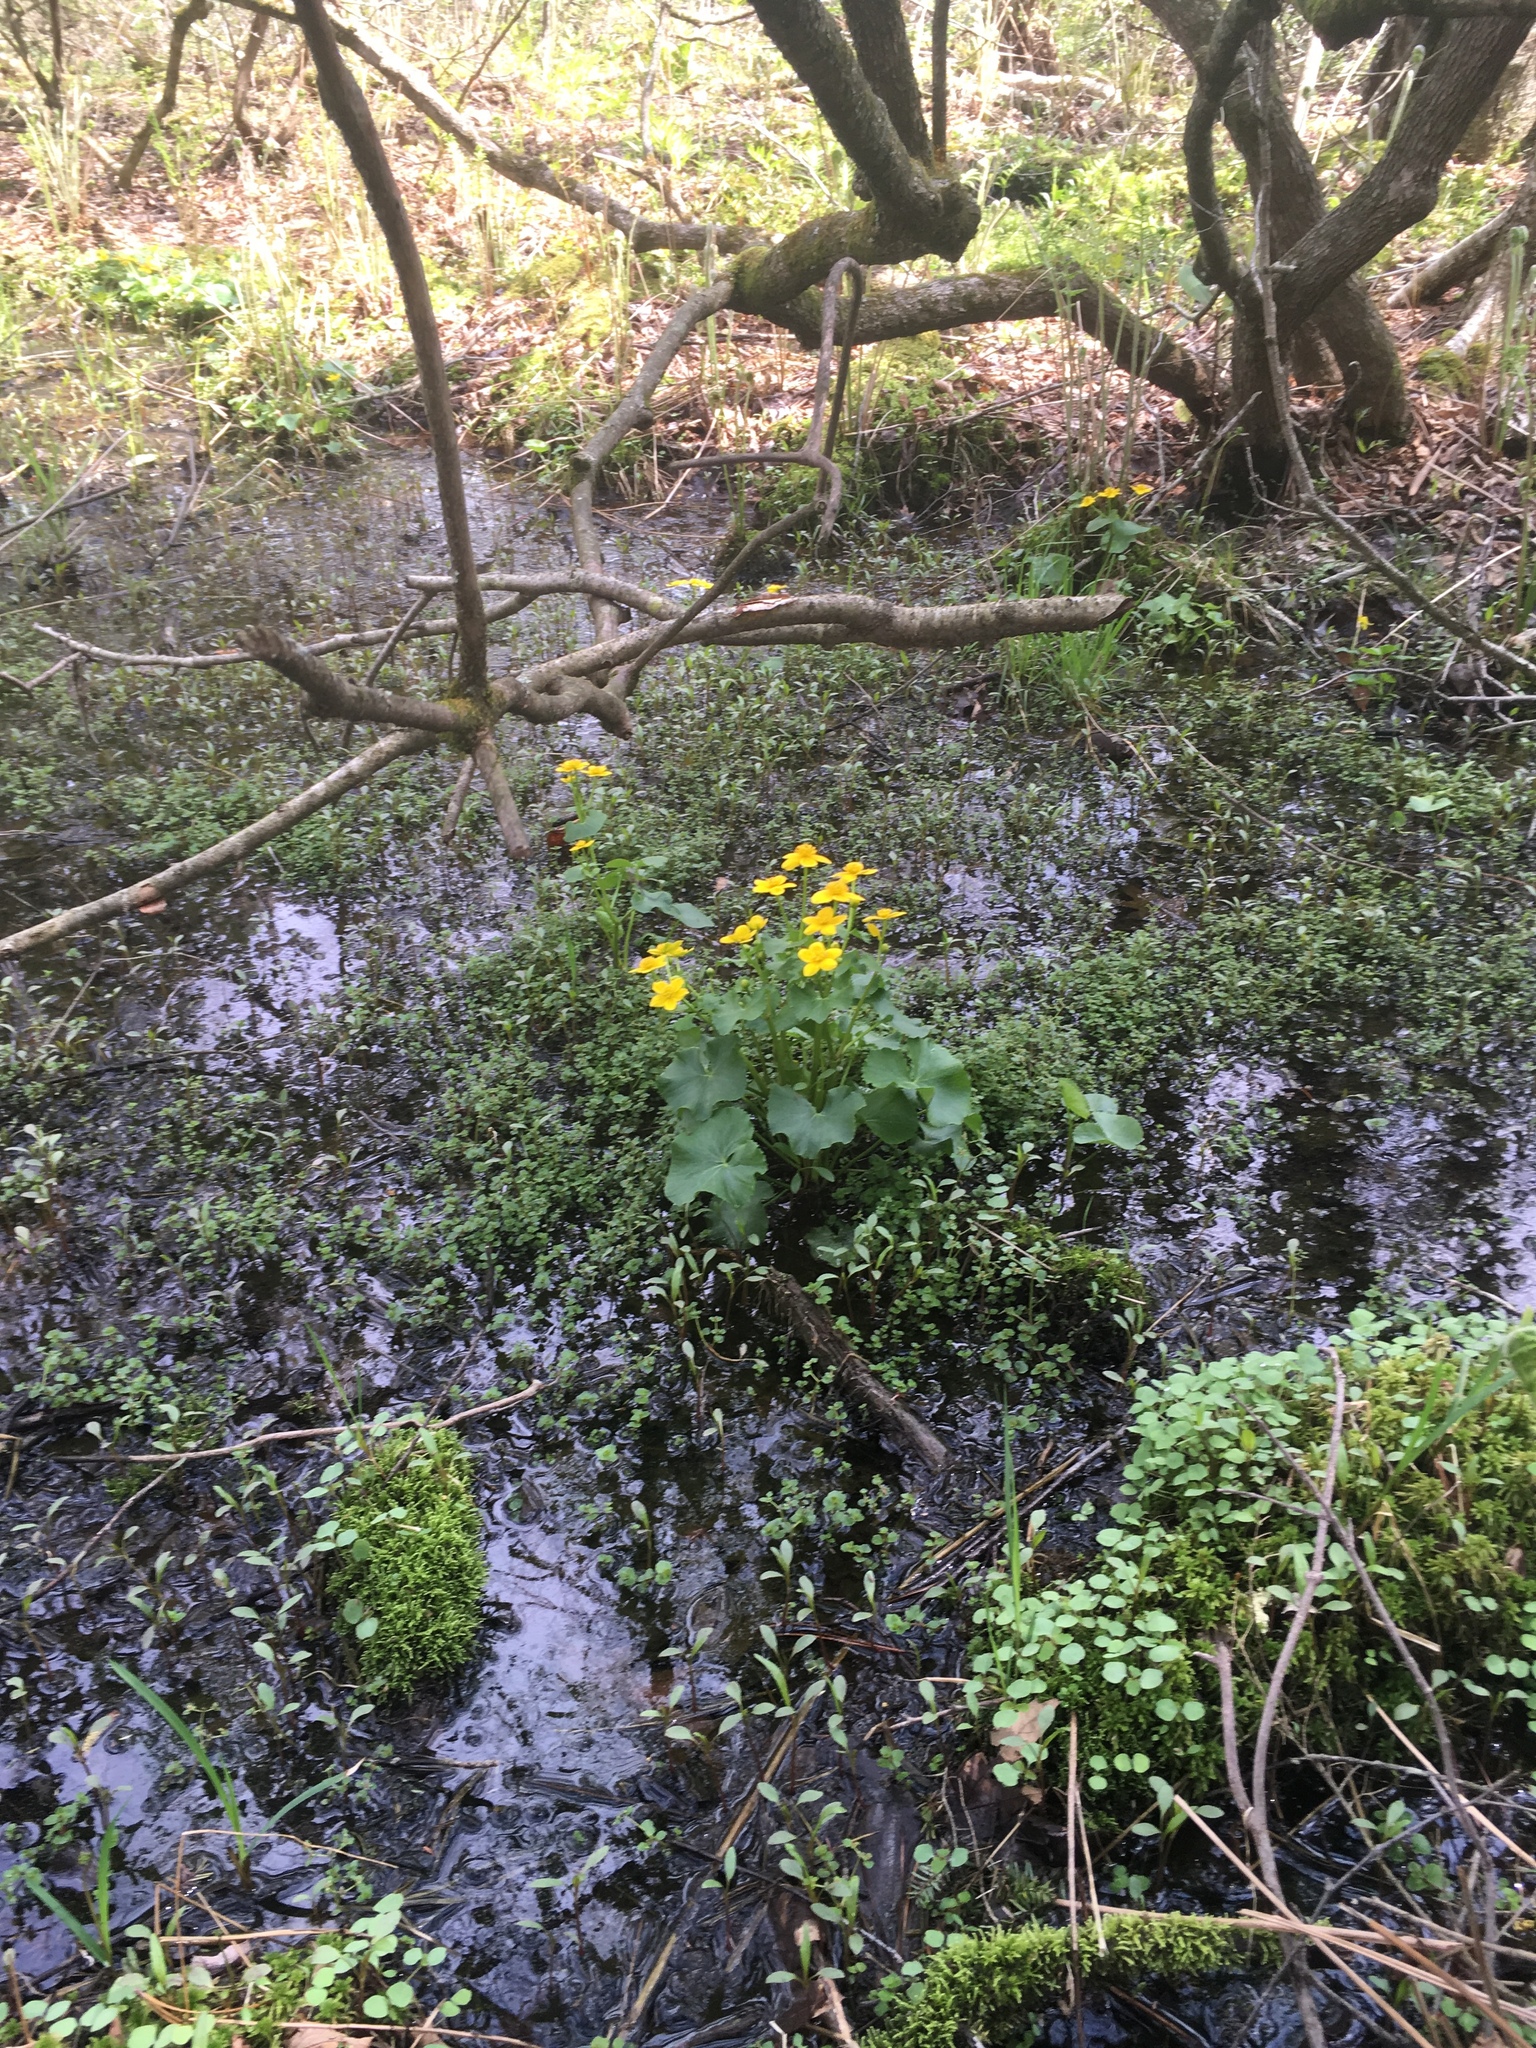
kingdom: Plantae
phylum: Tracheophyta
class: Magnoliopsida
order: Ranunculales
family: Ranunculaceae
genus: Caltha
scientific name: Caltha palustris
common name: Marsh marigold
